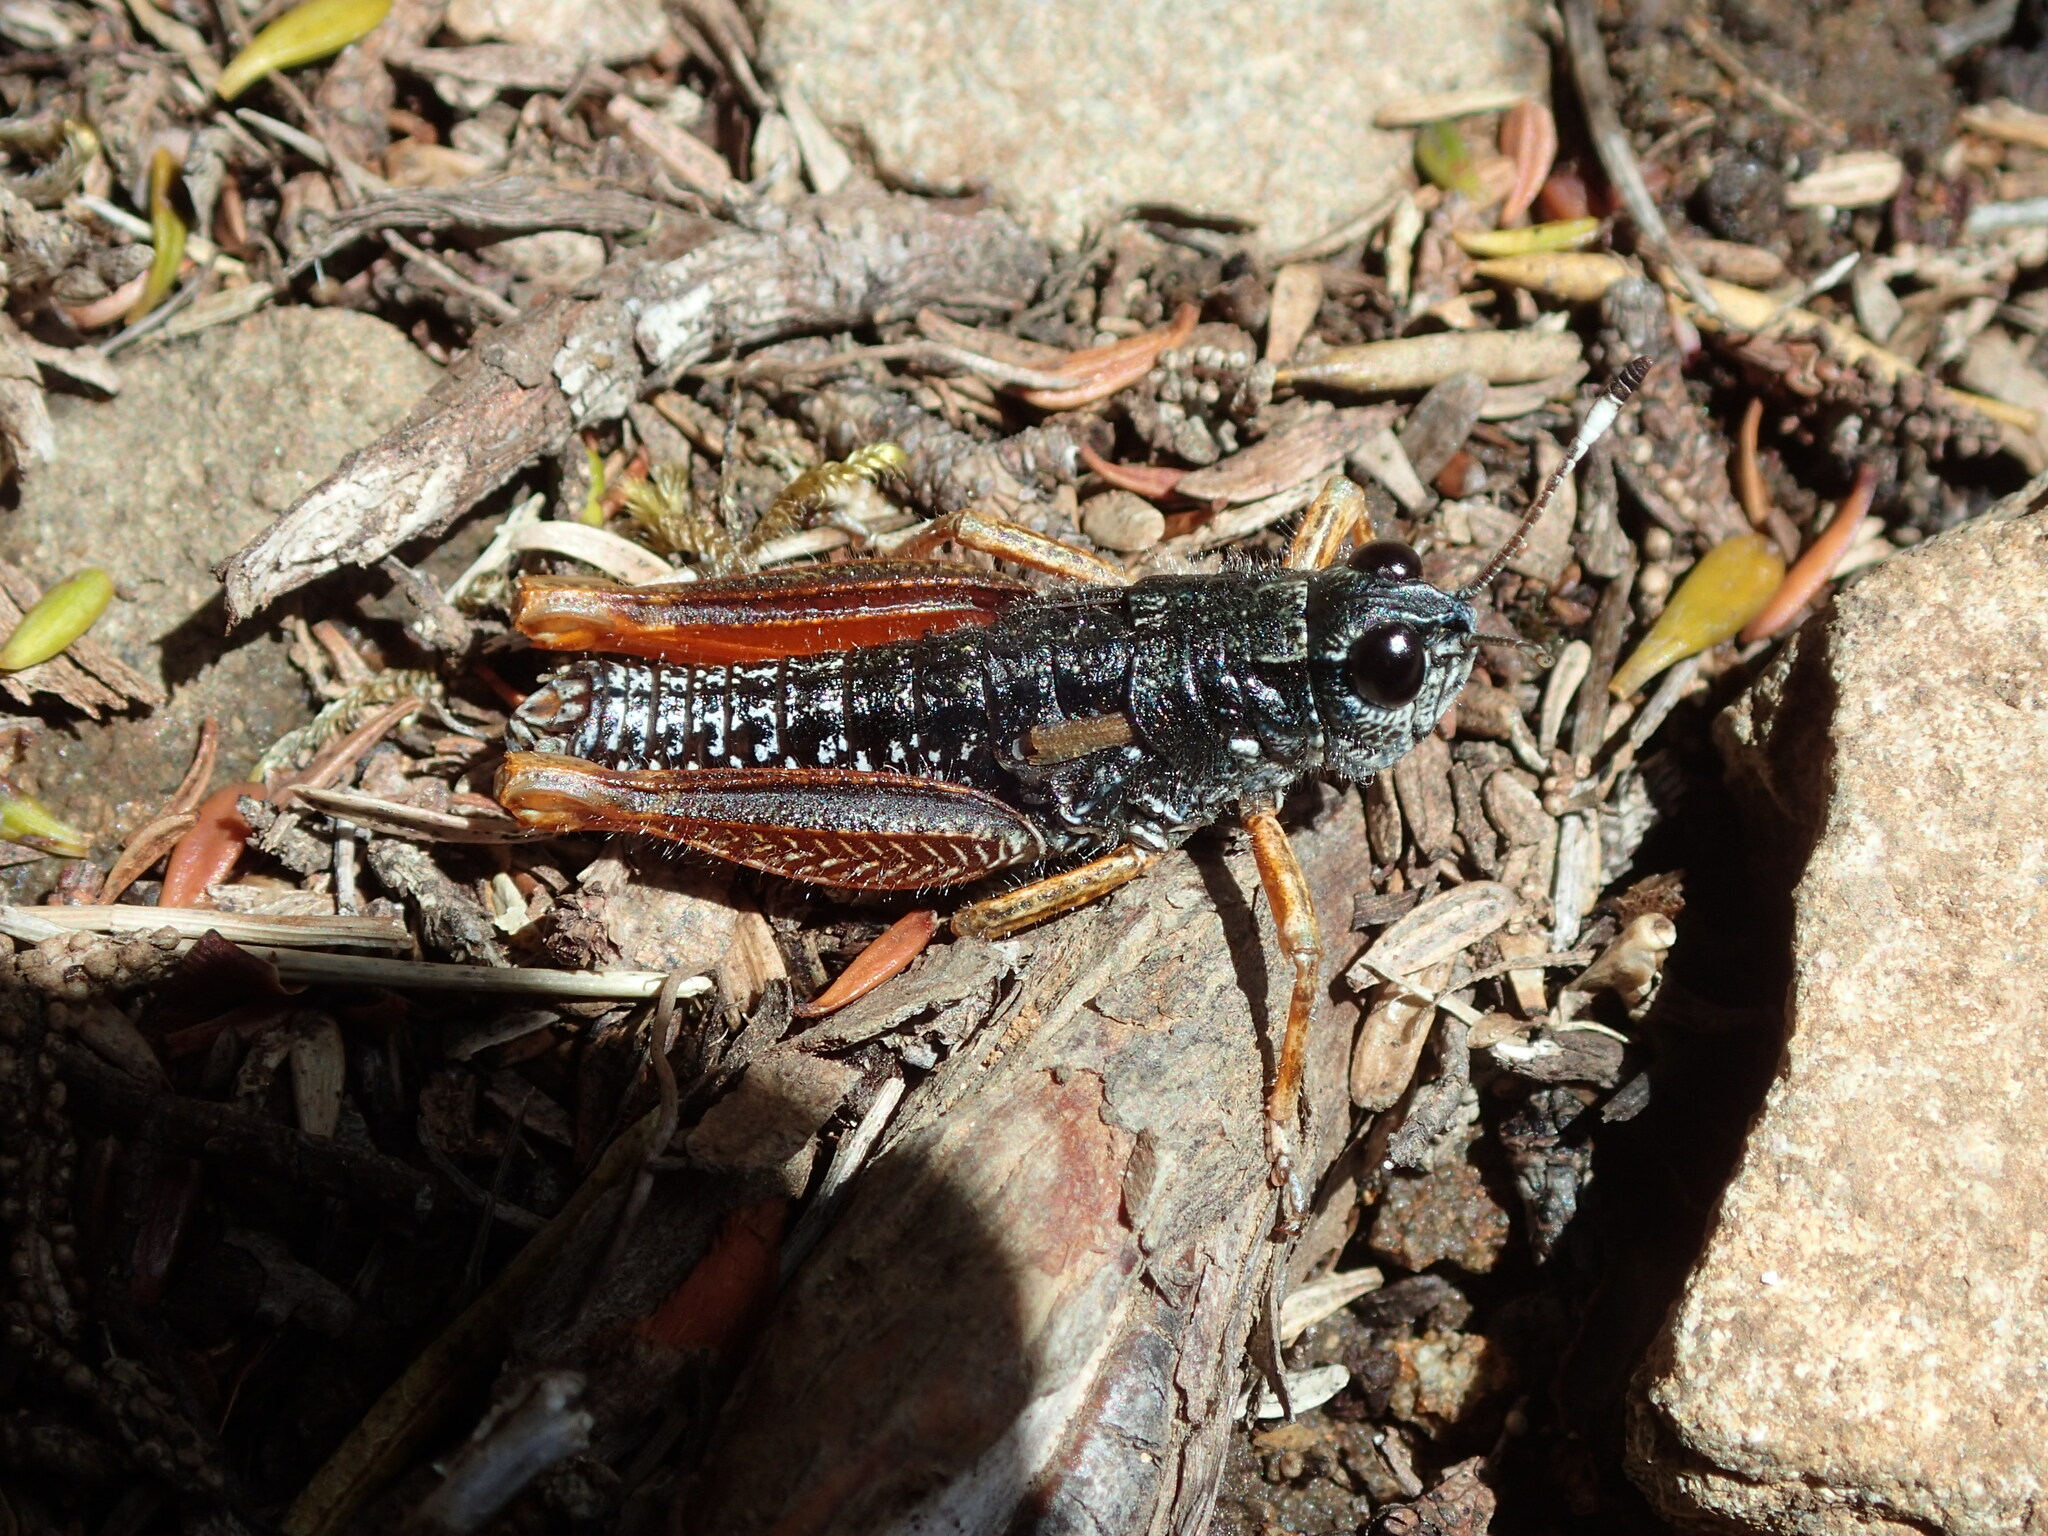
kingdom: Animalia
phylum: Arthropoda
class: Insecta
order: Orthoptera
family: Acrididae
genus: Tasmanalpina
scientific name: Tasmanalpina clavata
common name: Tasmanian velvet grasshopper
